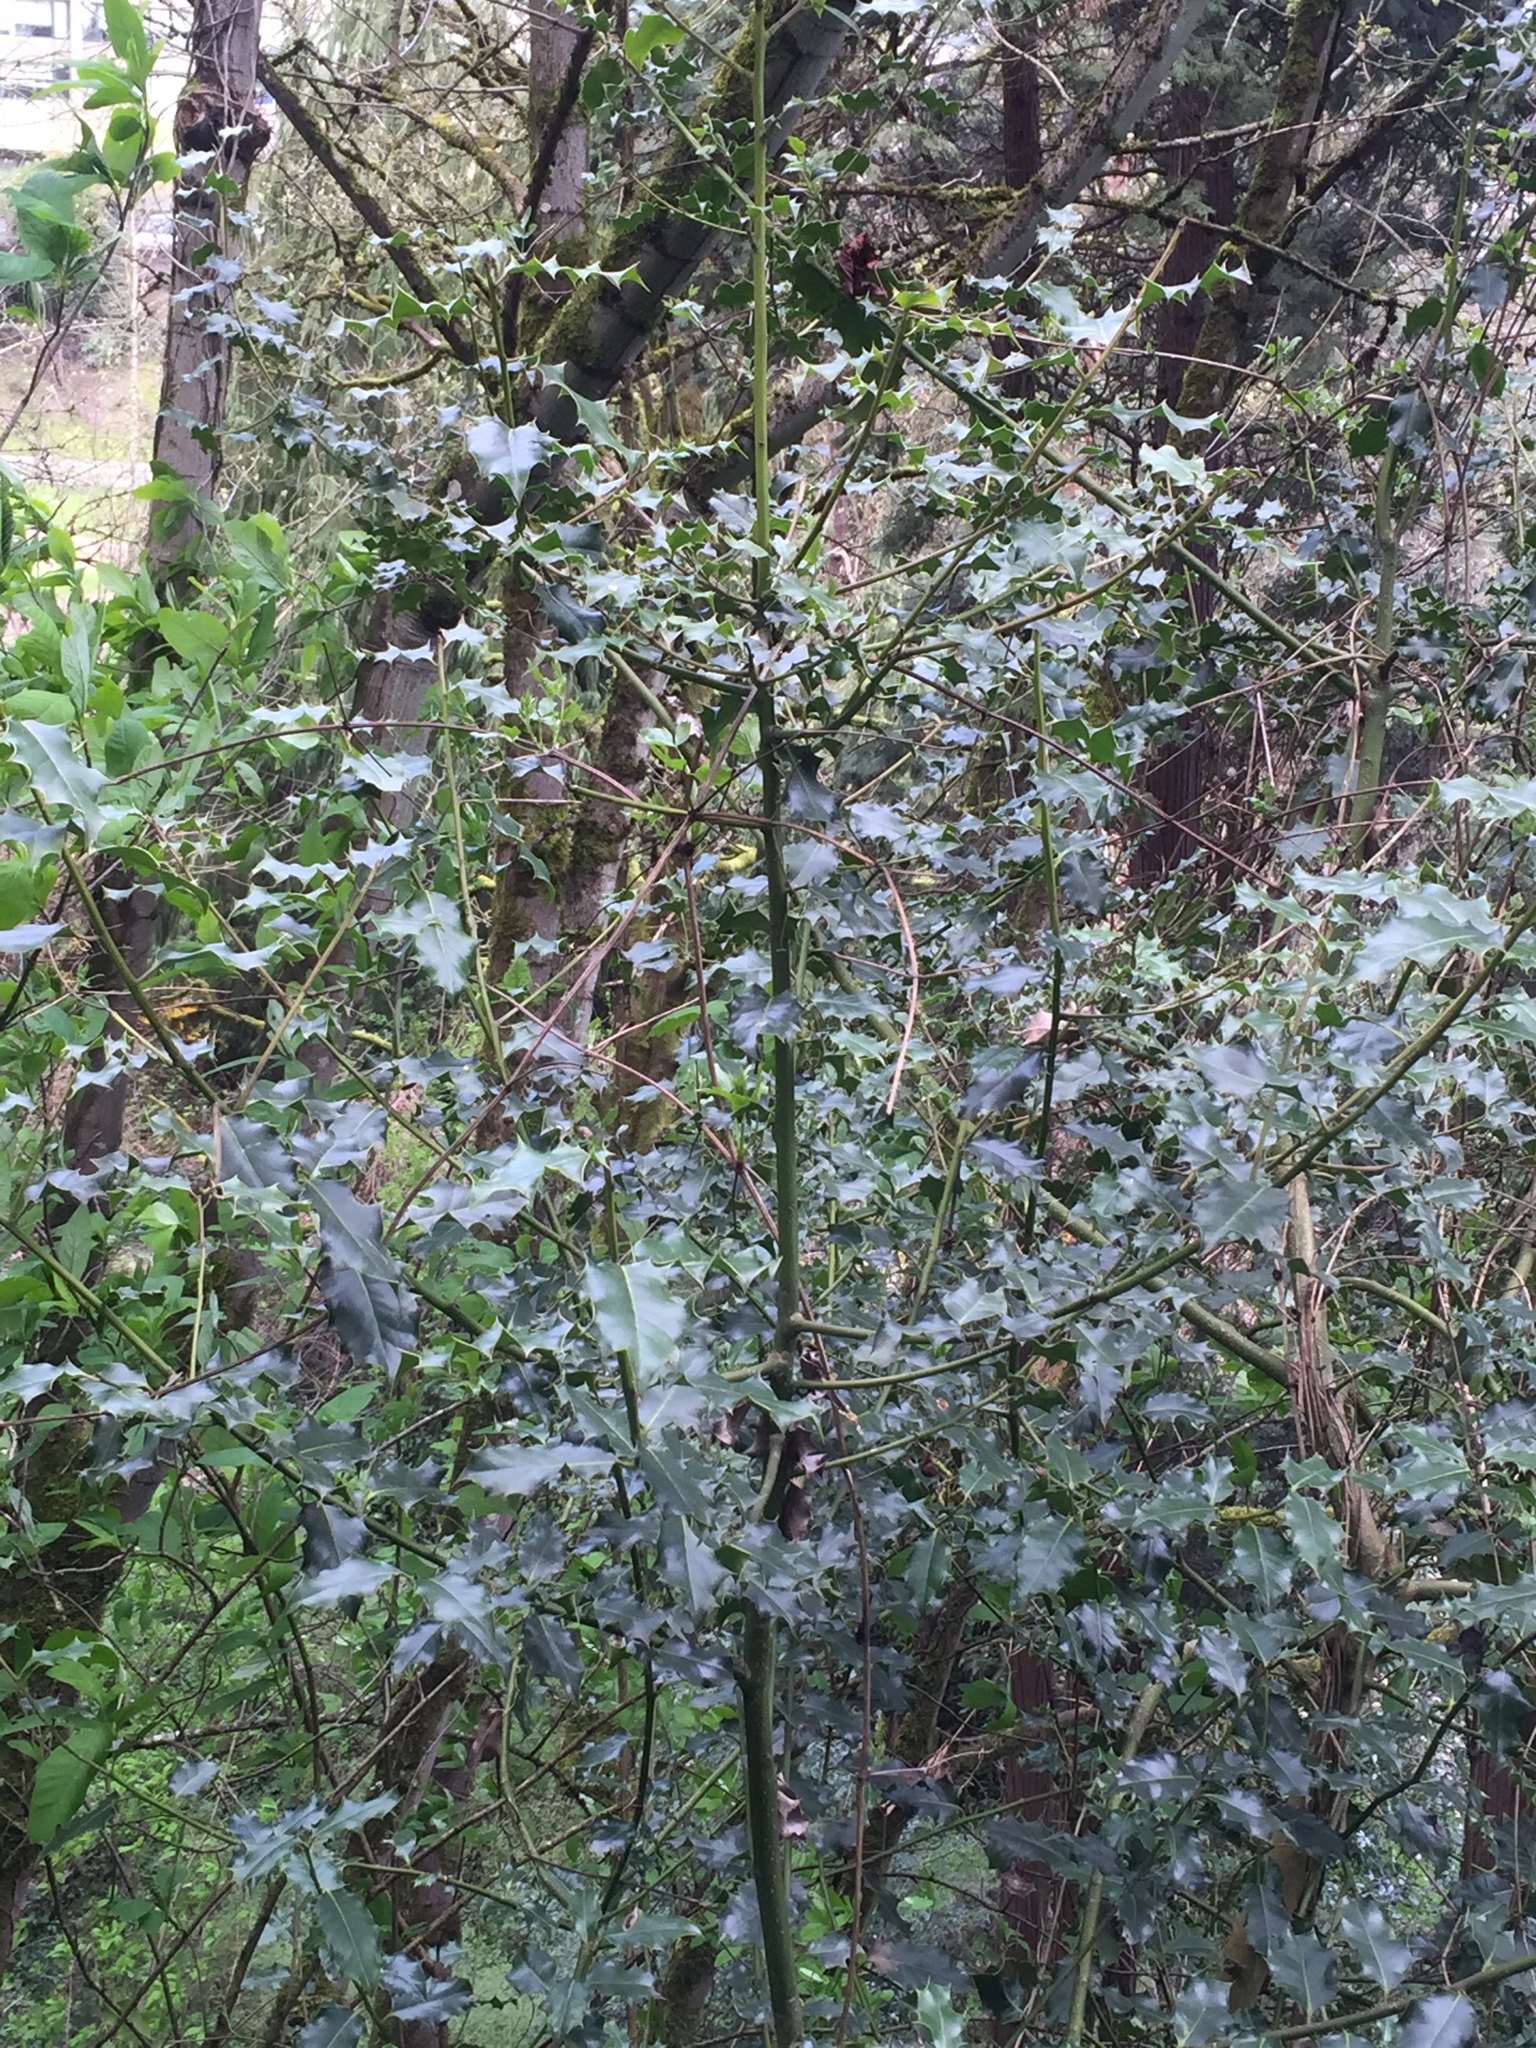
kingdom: Plantae
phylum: Tracheophyta
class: Magnoliopsida
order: Aquifoliales
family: Aquifoliaceae
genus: Ilex
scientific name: Ilex aquifolium
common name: English holly
